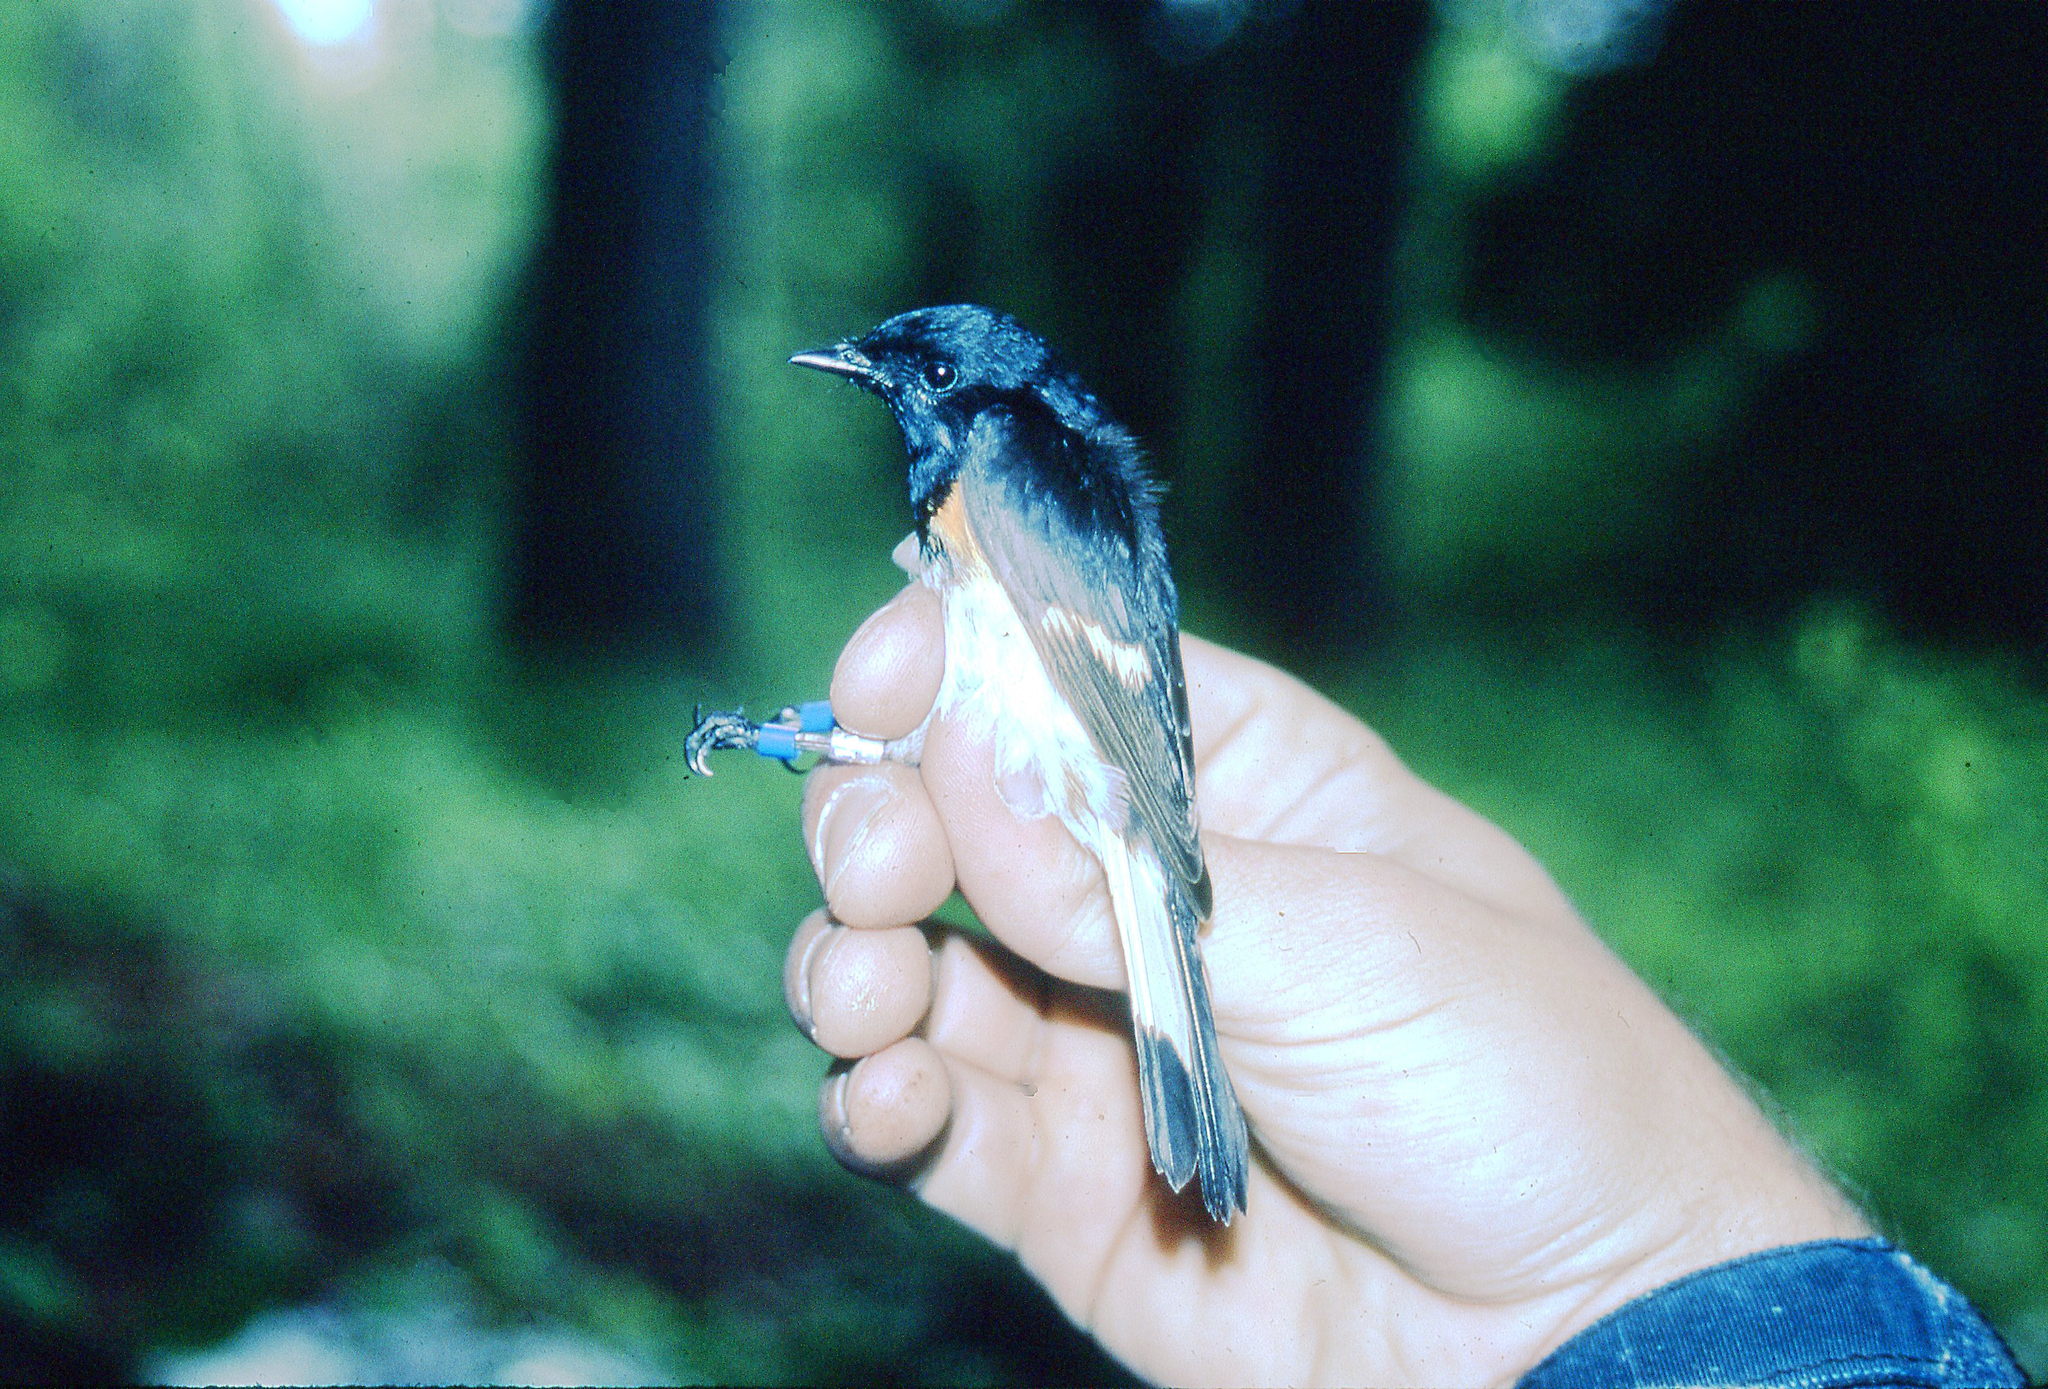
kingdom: Animalia
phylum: Chordata
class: Aves
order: Passeriformes
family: Parulidae
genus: Setophaga
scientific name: Setophaga ruticilla
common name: American redstart
